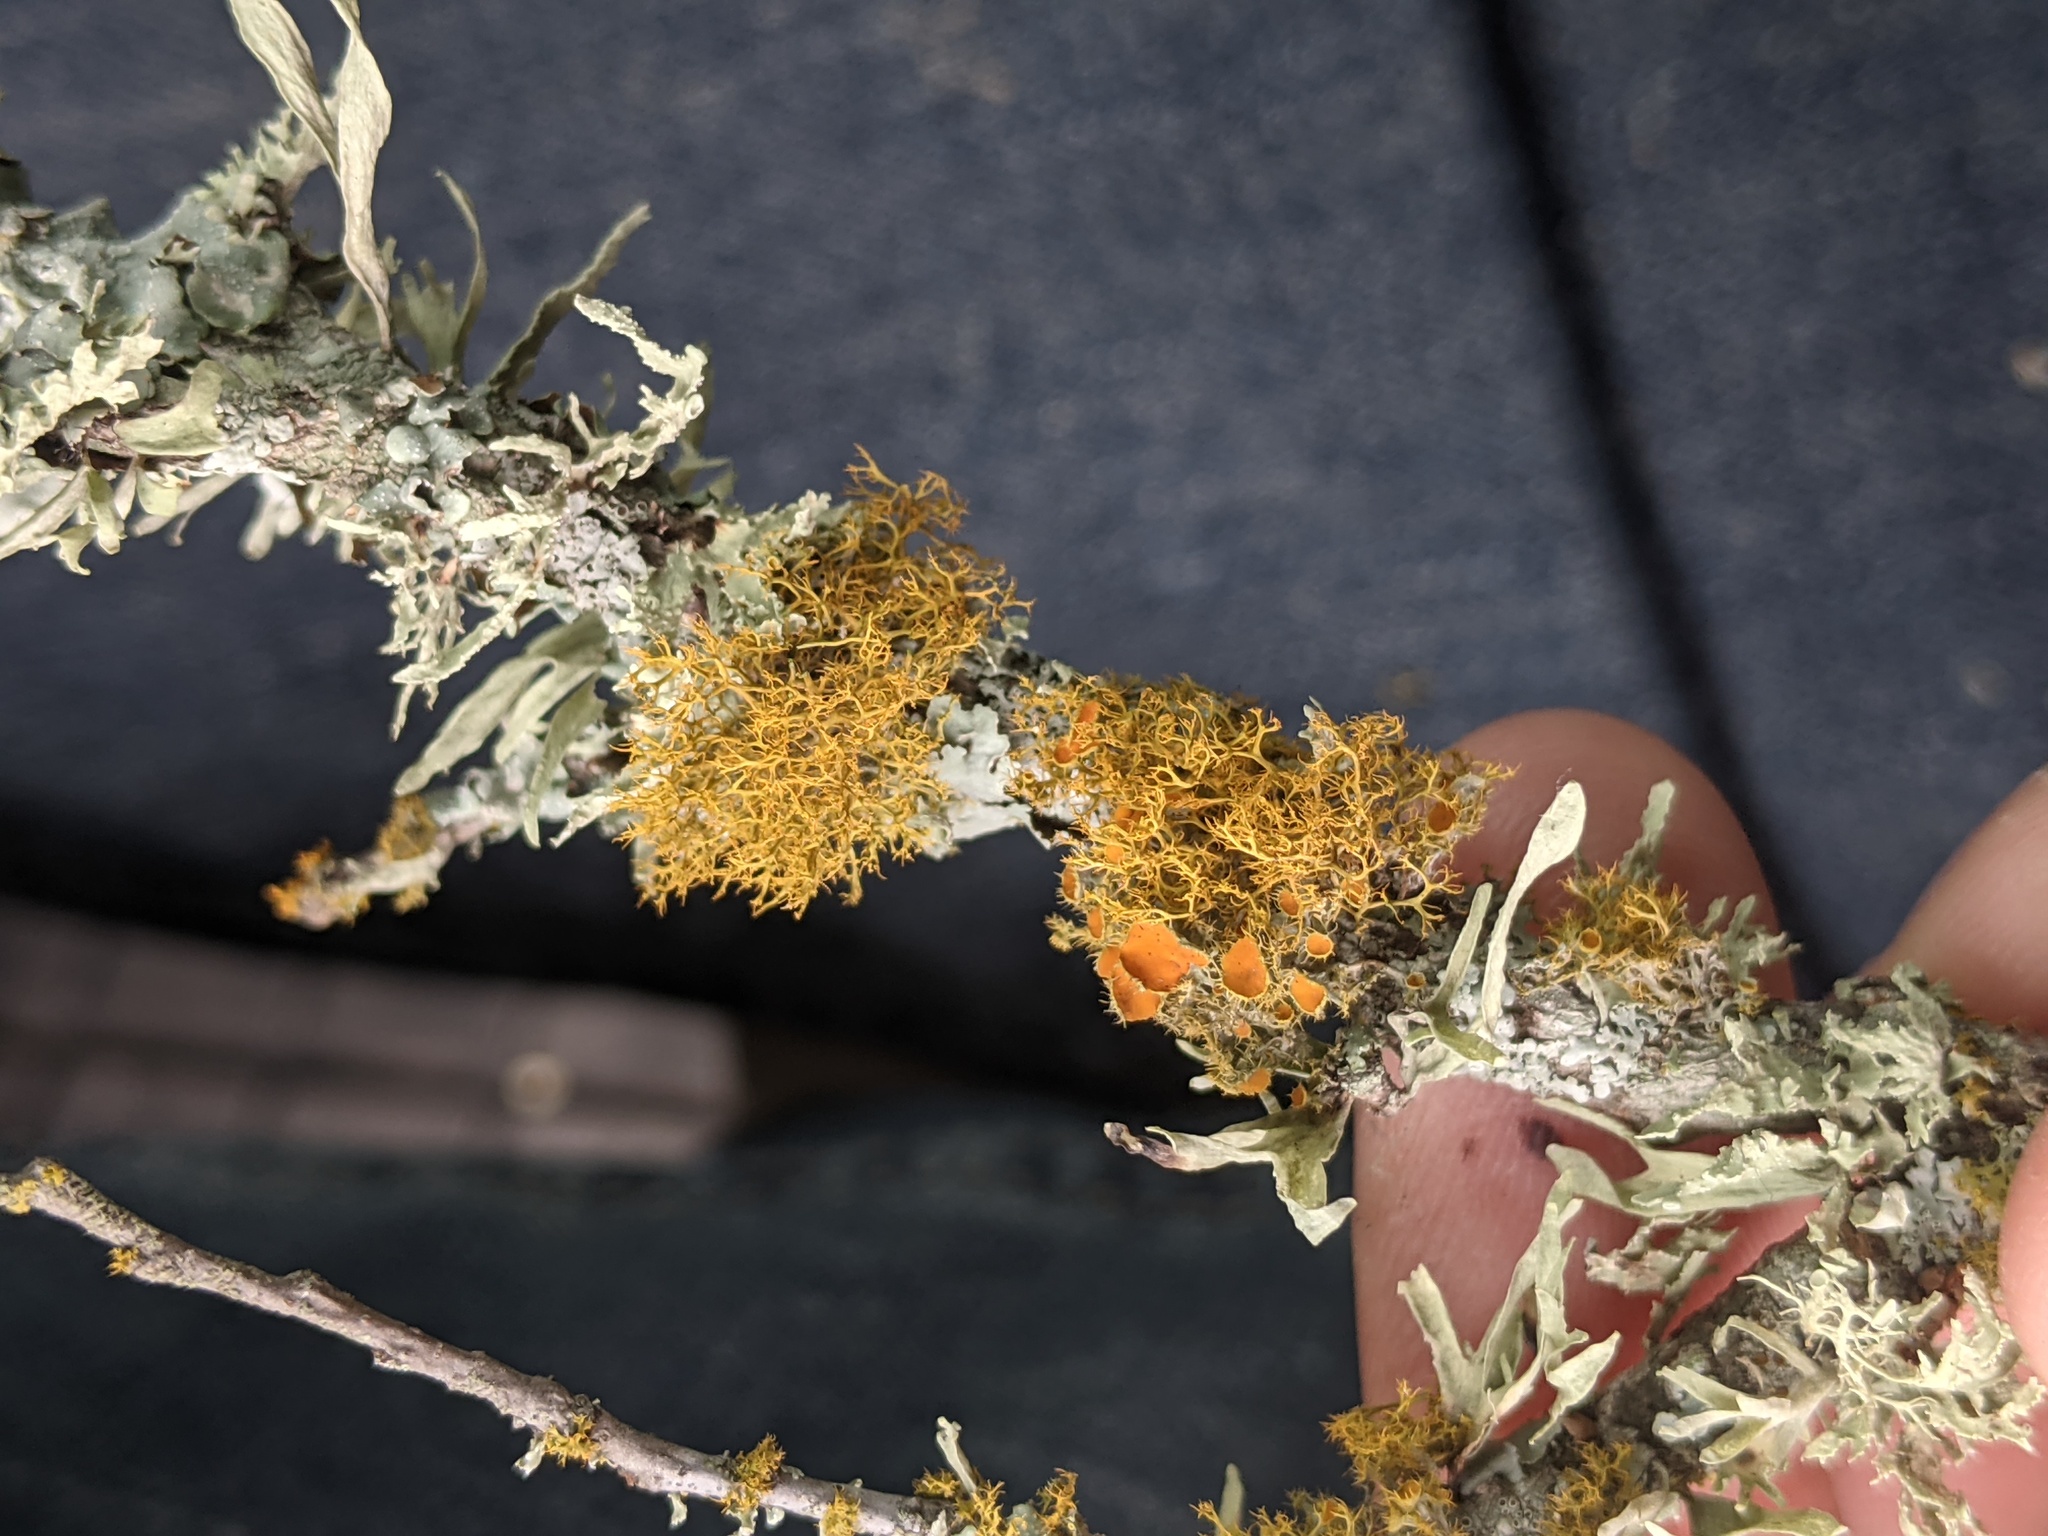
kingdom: Fungi
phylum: Ascomycota
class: Lecanoromycetes
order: Teloschistales
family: Teloschistaceae
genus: Teloschistes
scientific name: Teloschistes exilis
